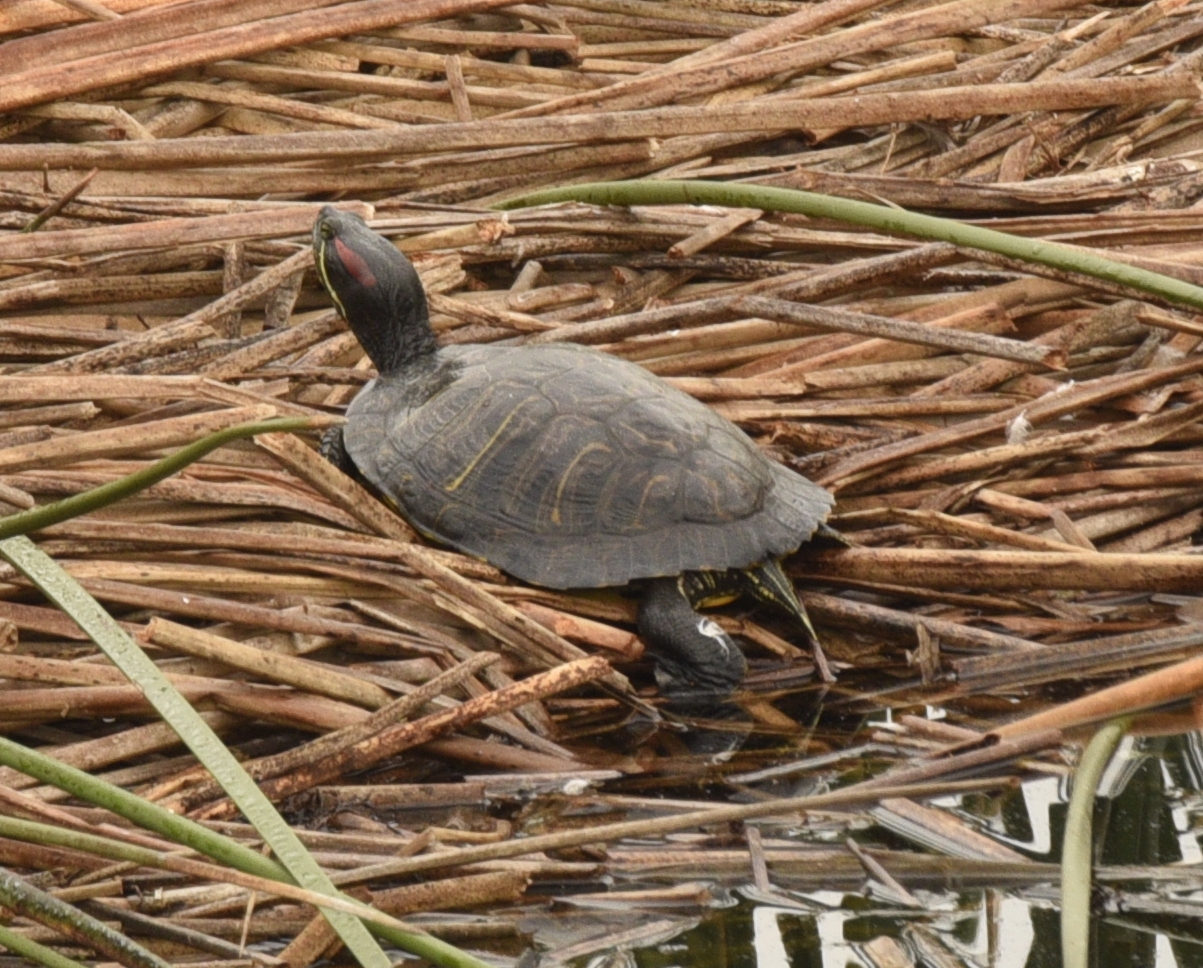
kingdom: Animalia
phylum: Chordata
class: Testudines
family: Emydidae
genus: Trachemys
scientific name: Trachemys scripta
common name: Slider
